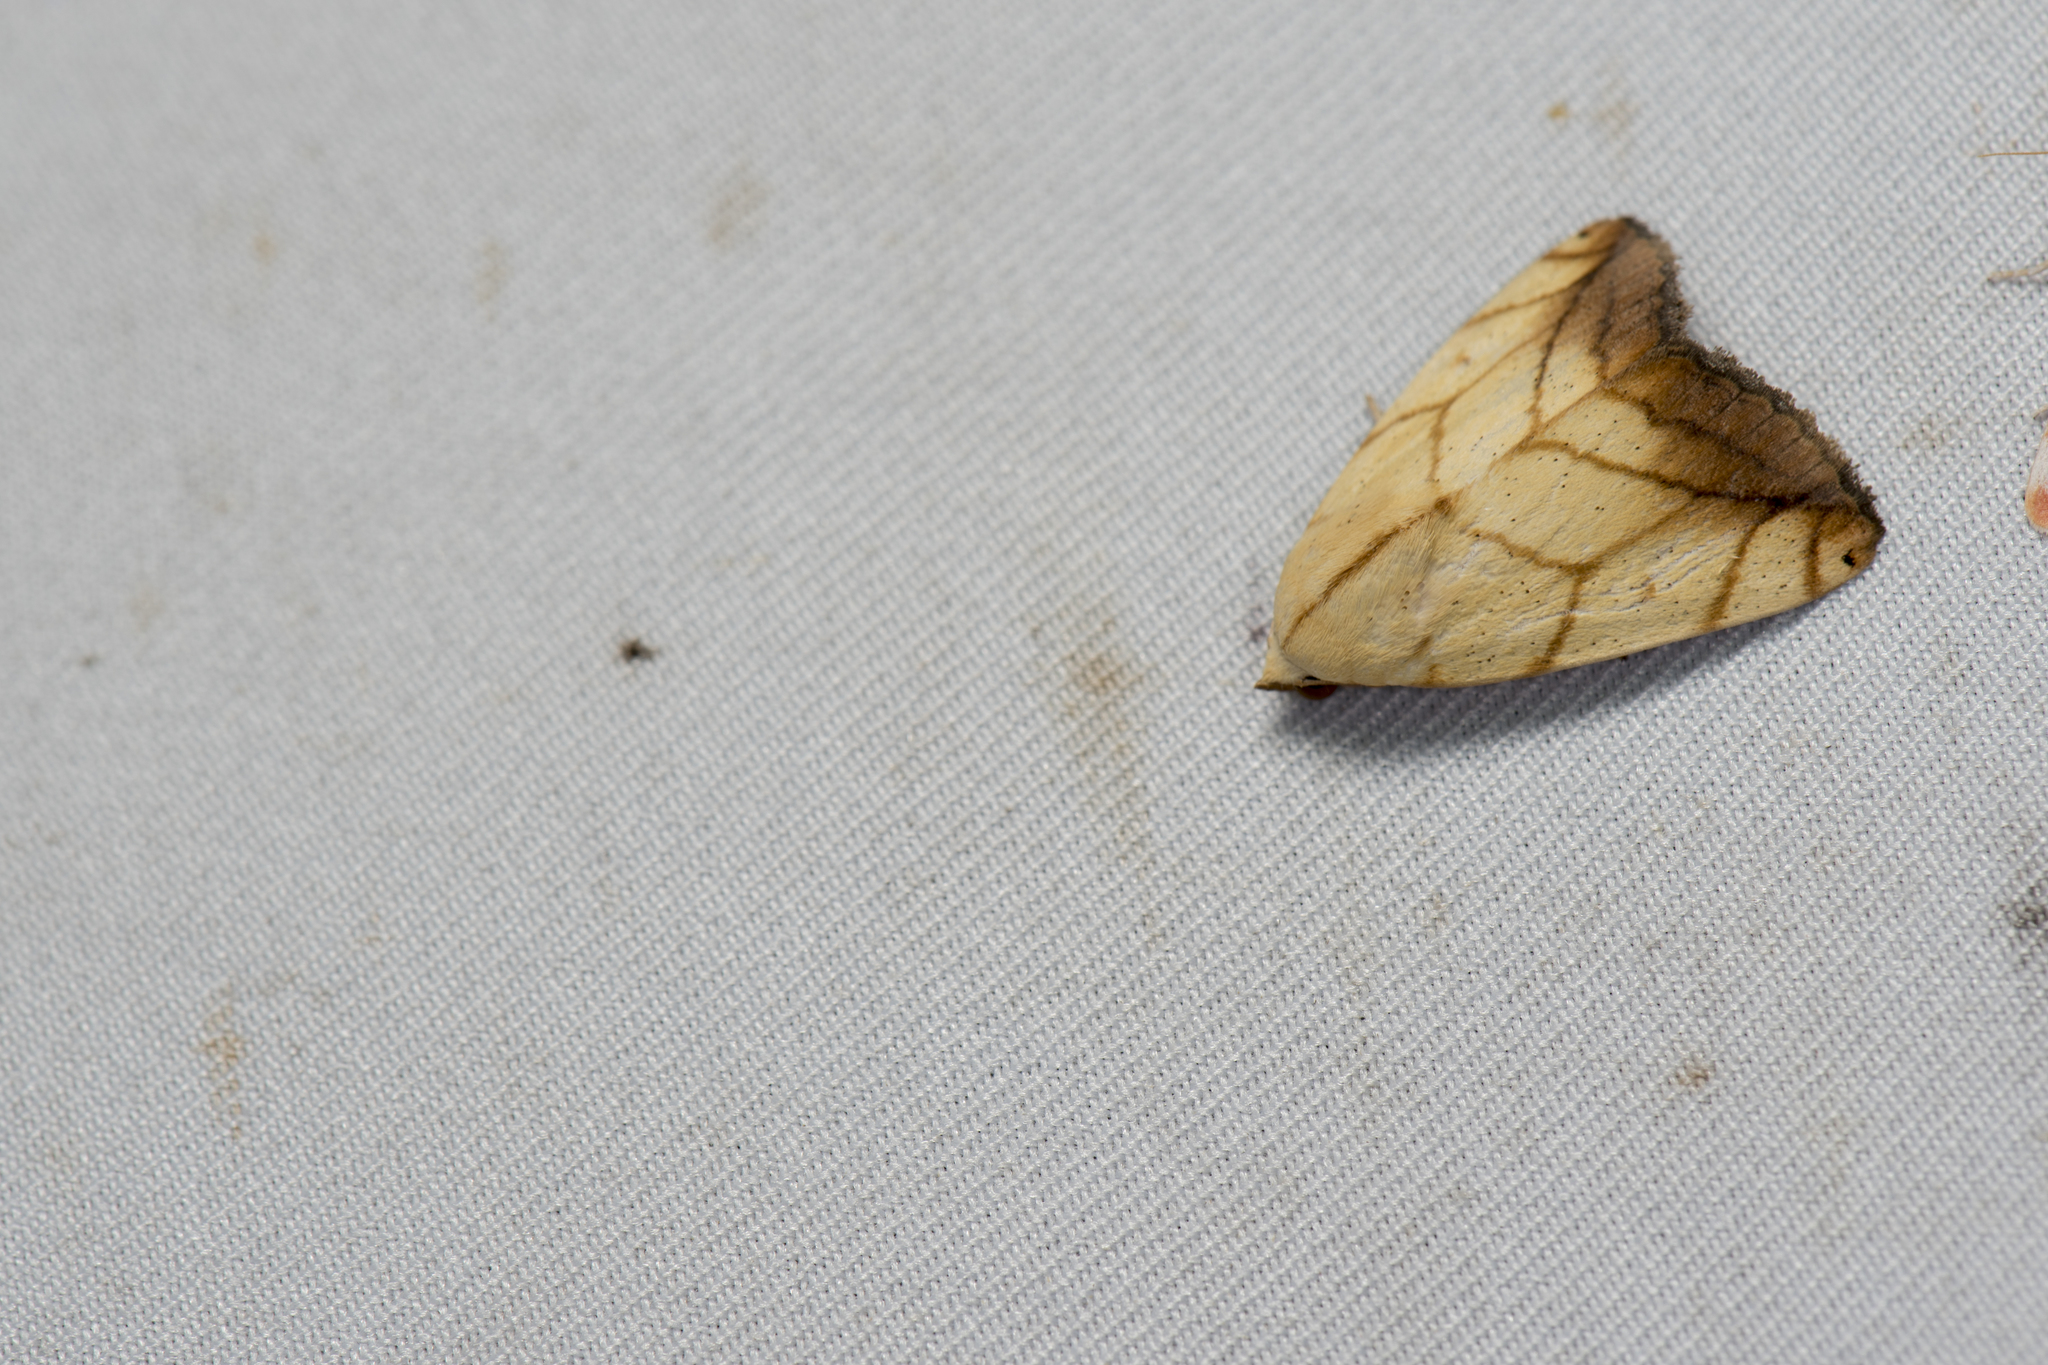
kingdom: Animalia
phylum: Arthropoda
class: Insecta
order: Lepidoptera
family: Nolidae
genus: Xanthodes
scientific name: Xanthodes transversa
